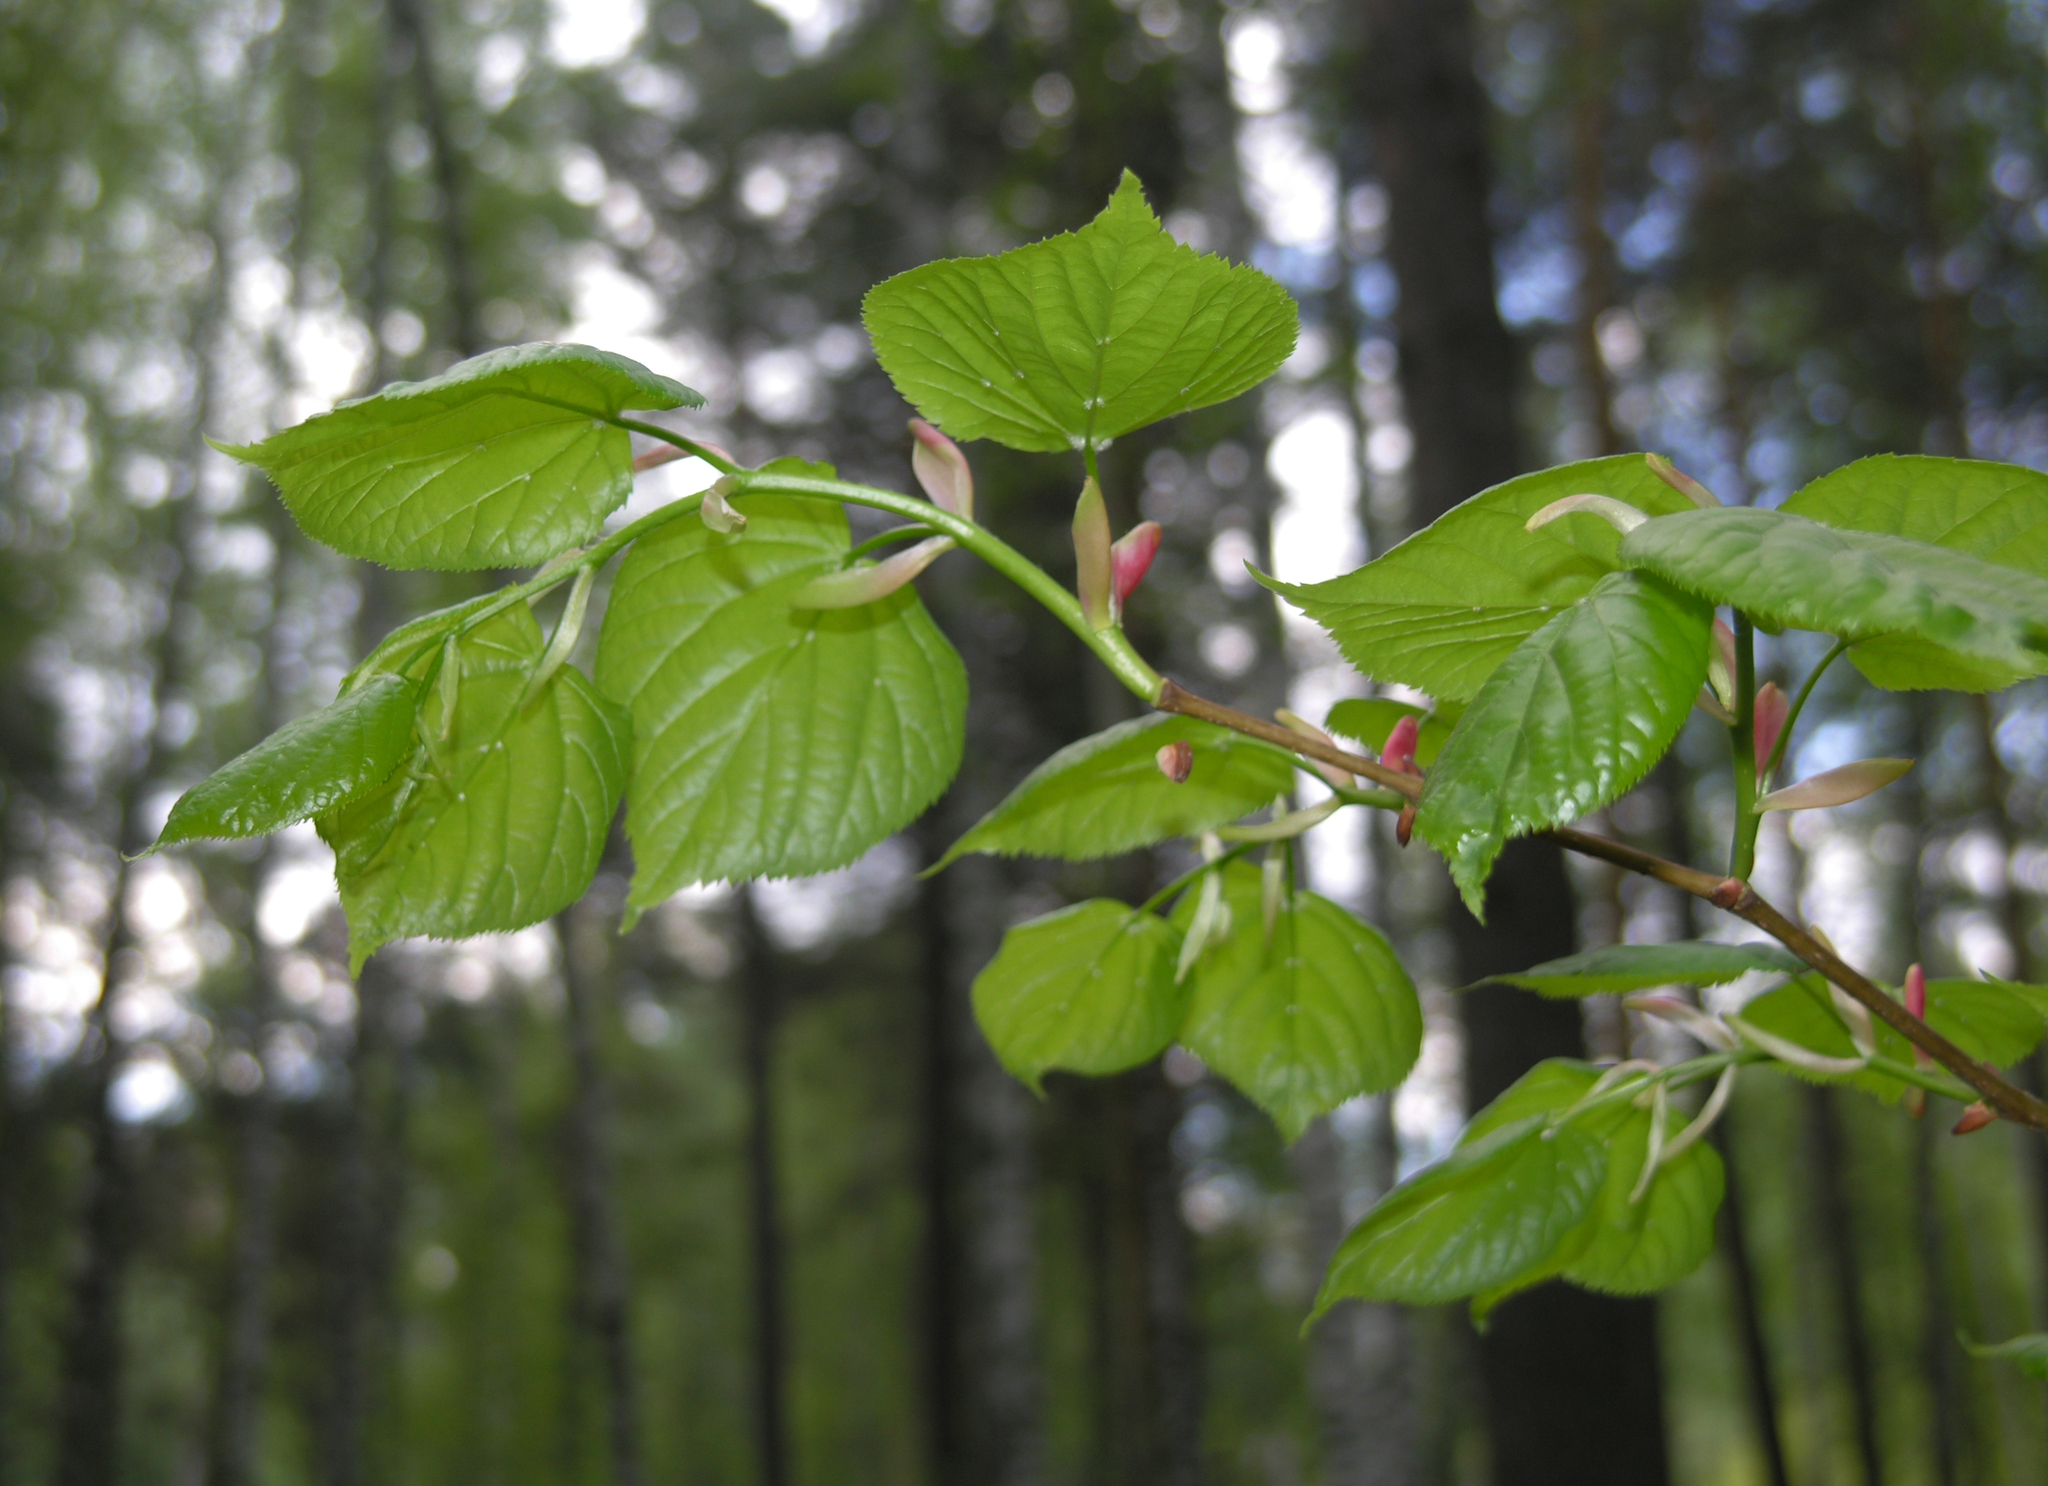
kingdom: Plantae
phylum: Tracheophyta
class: Magnoliopsida
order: Malvales
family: Malvaceae
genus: Tilia
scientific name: Tilia cordata
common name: Small-leaved lime
